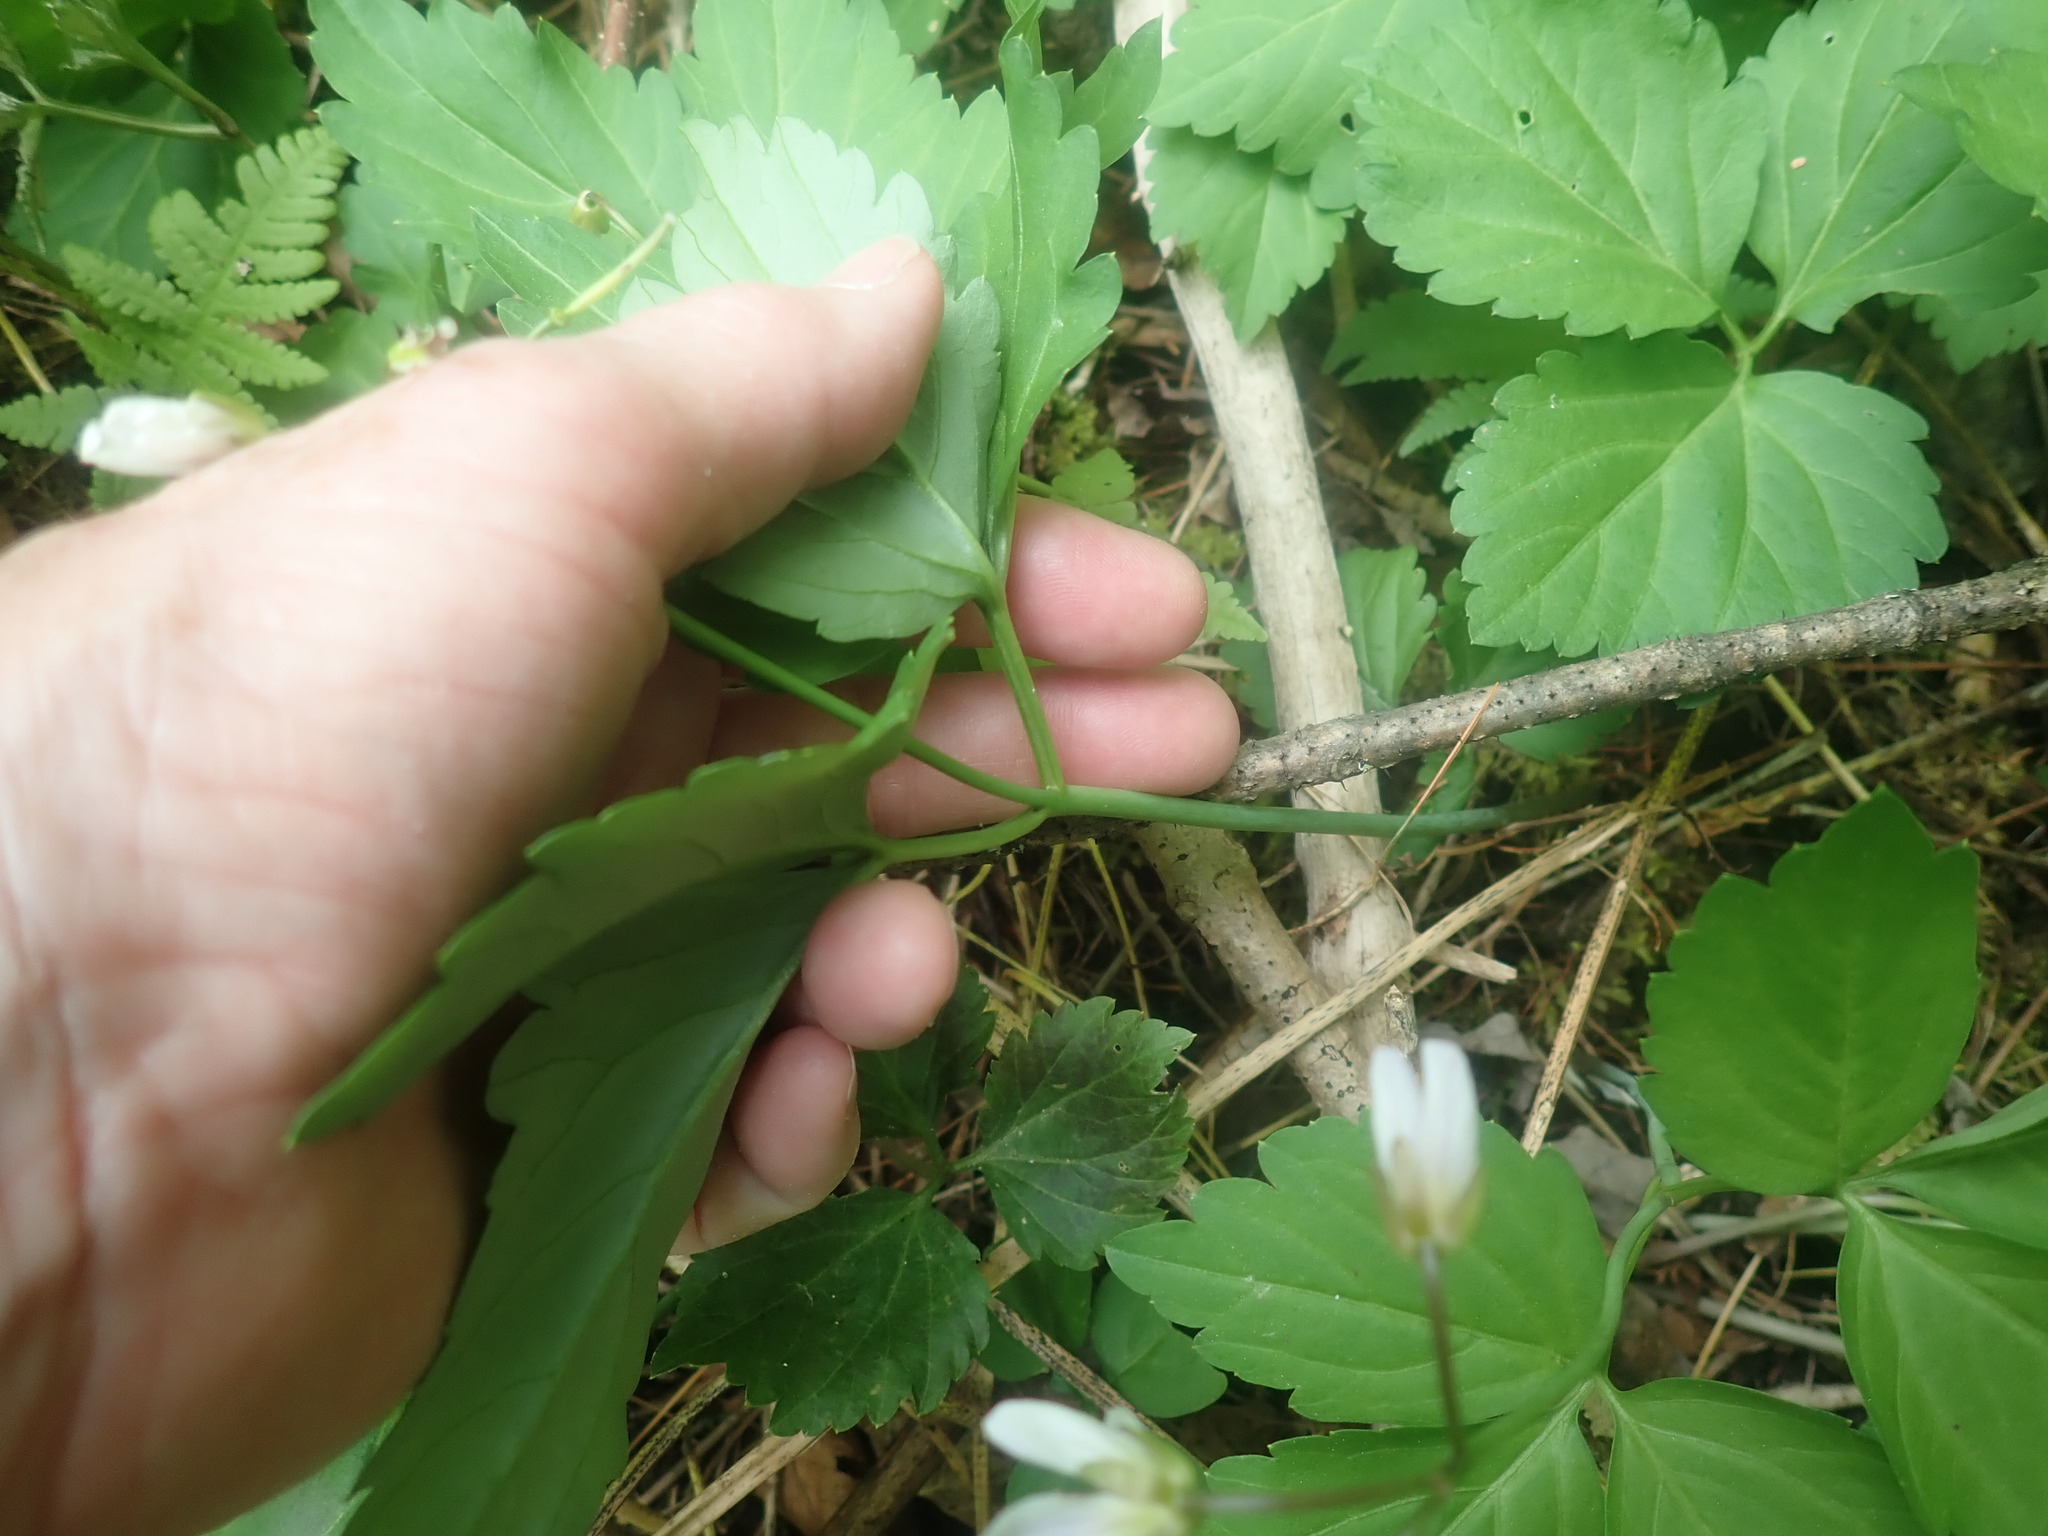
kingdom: Plantae
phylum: Tracheophyta
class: Magnoliopsida
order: Brassicales
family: Brassicaceae
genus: Cardamine
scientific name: Cardamine diphylla
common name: Broad-leaved toothwort
